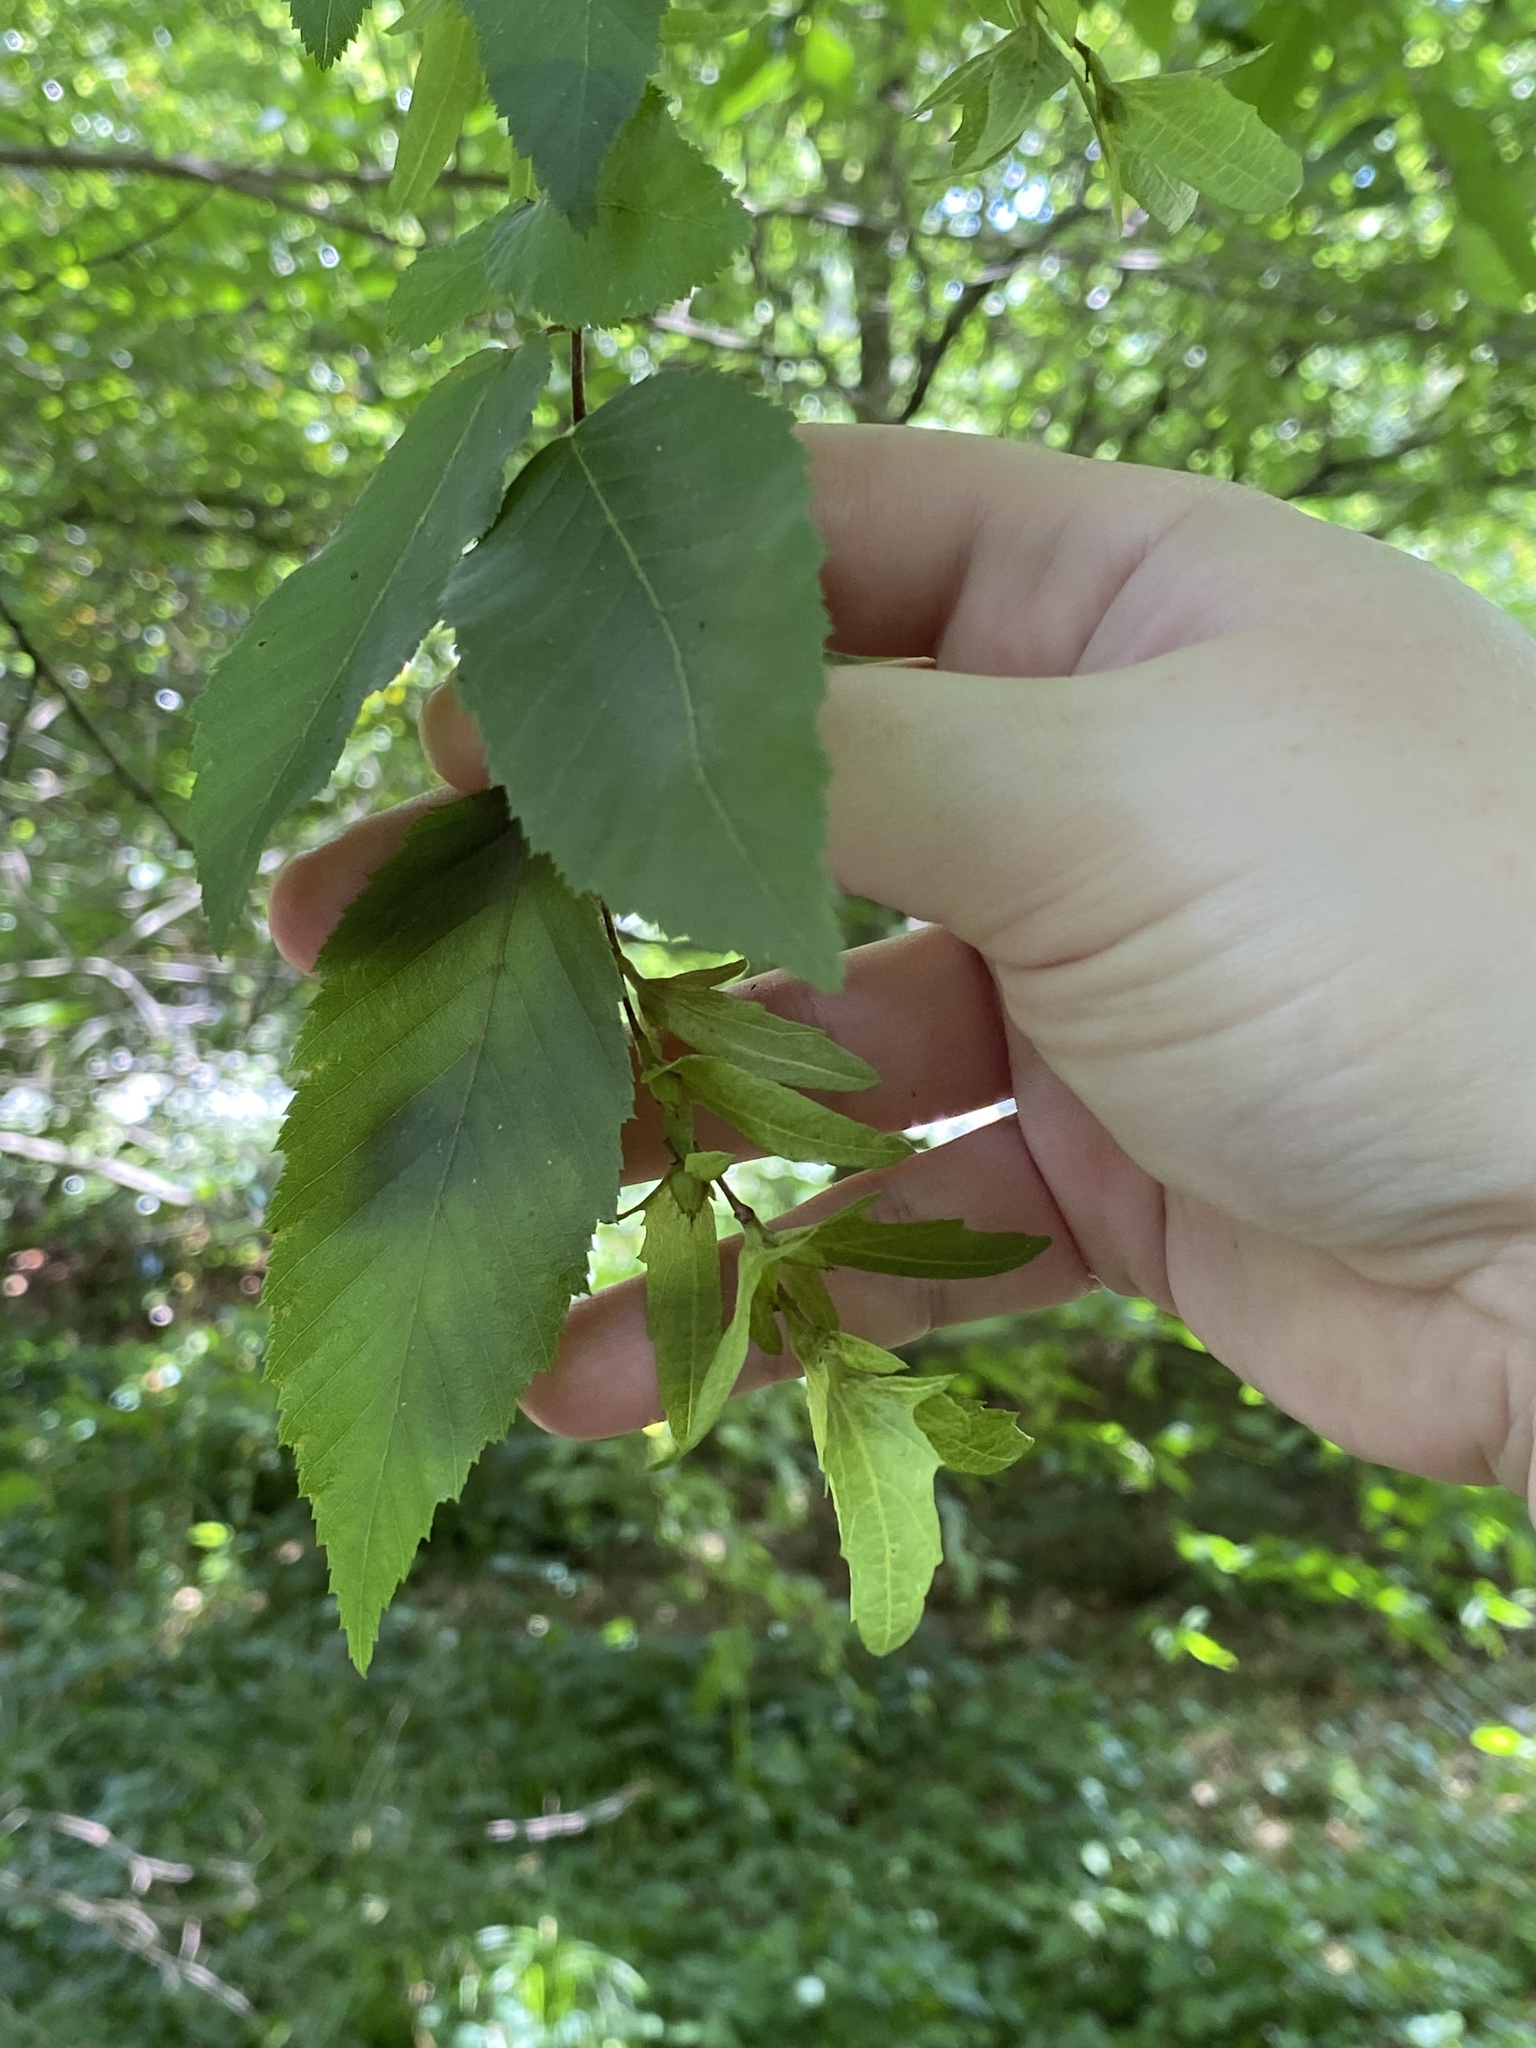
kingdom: Plantae
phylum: Tracheophyta
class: Magnoliopsida
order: Fagales
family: Betulaceae
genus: Carpinus
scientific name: Carpinus caroliniana
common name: American hornbeam
